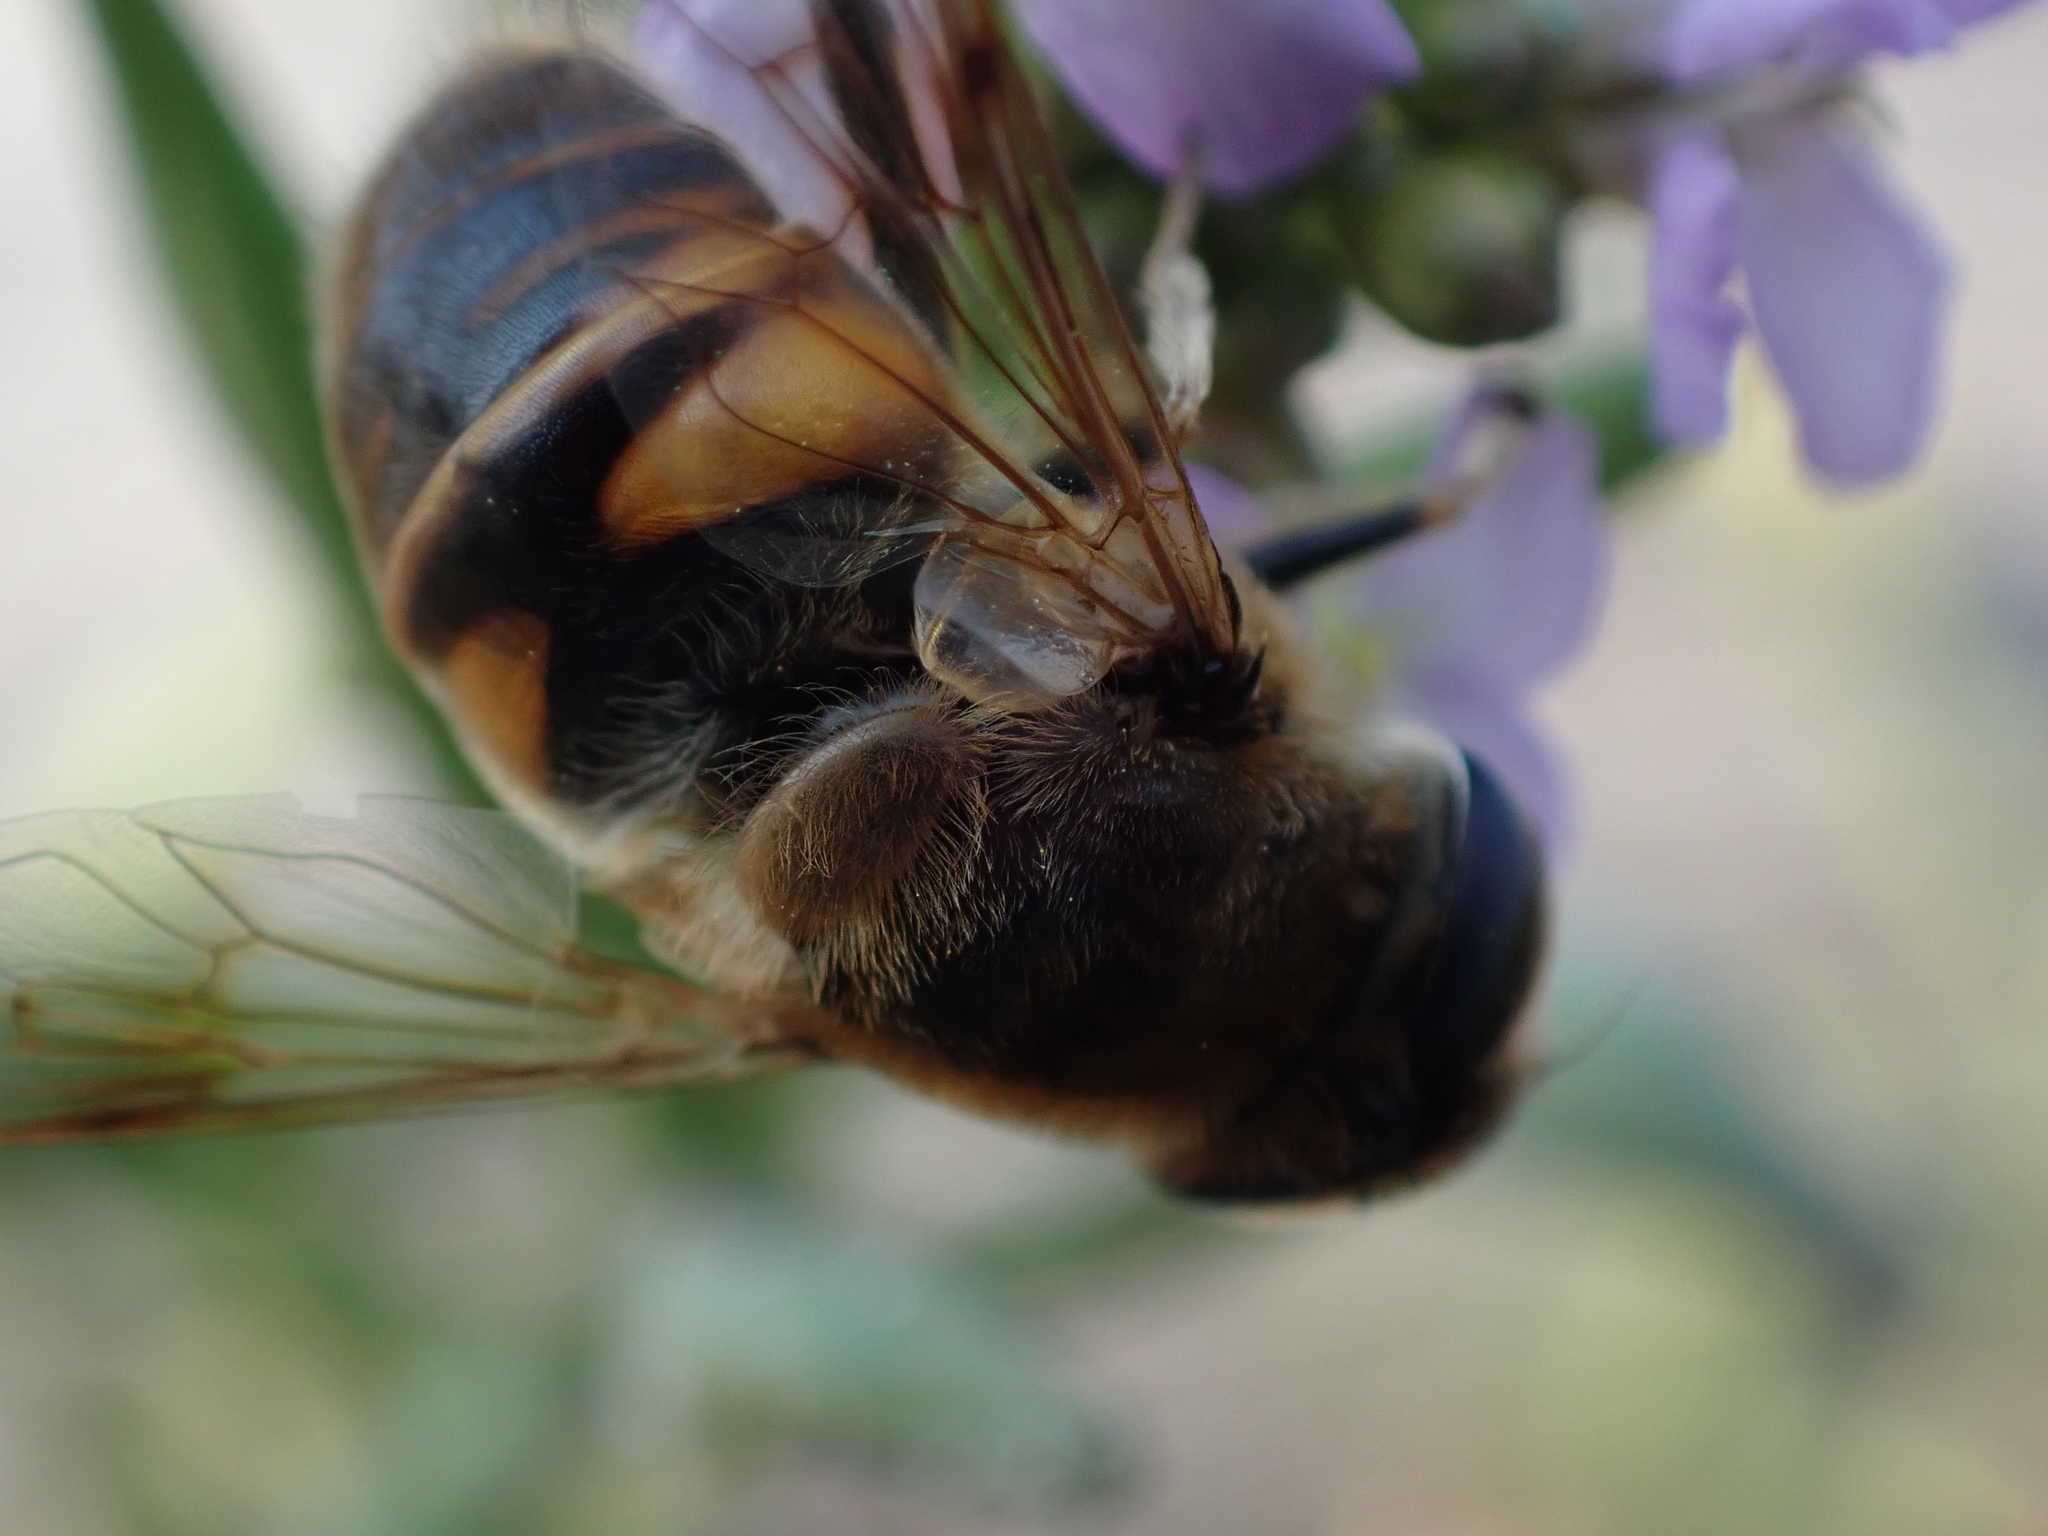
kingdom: Animalia
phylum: Arthropoda
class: Insecta
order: Diptera
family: Syrphidae
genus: Eristalis
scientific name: Eristalis tenax
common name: Drone fly
